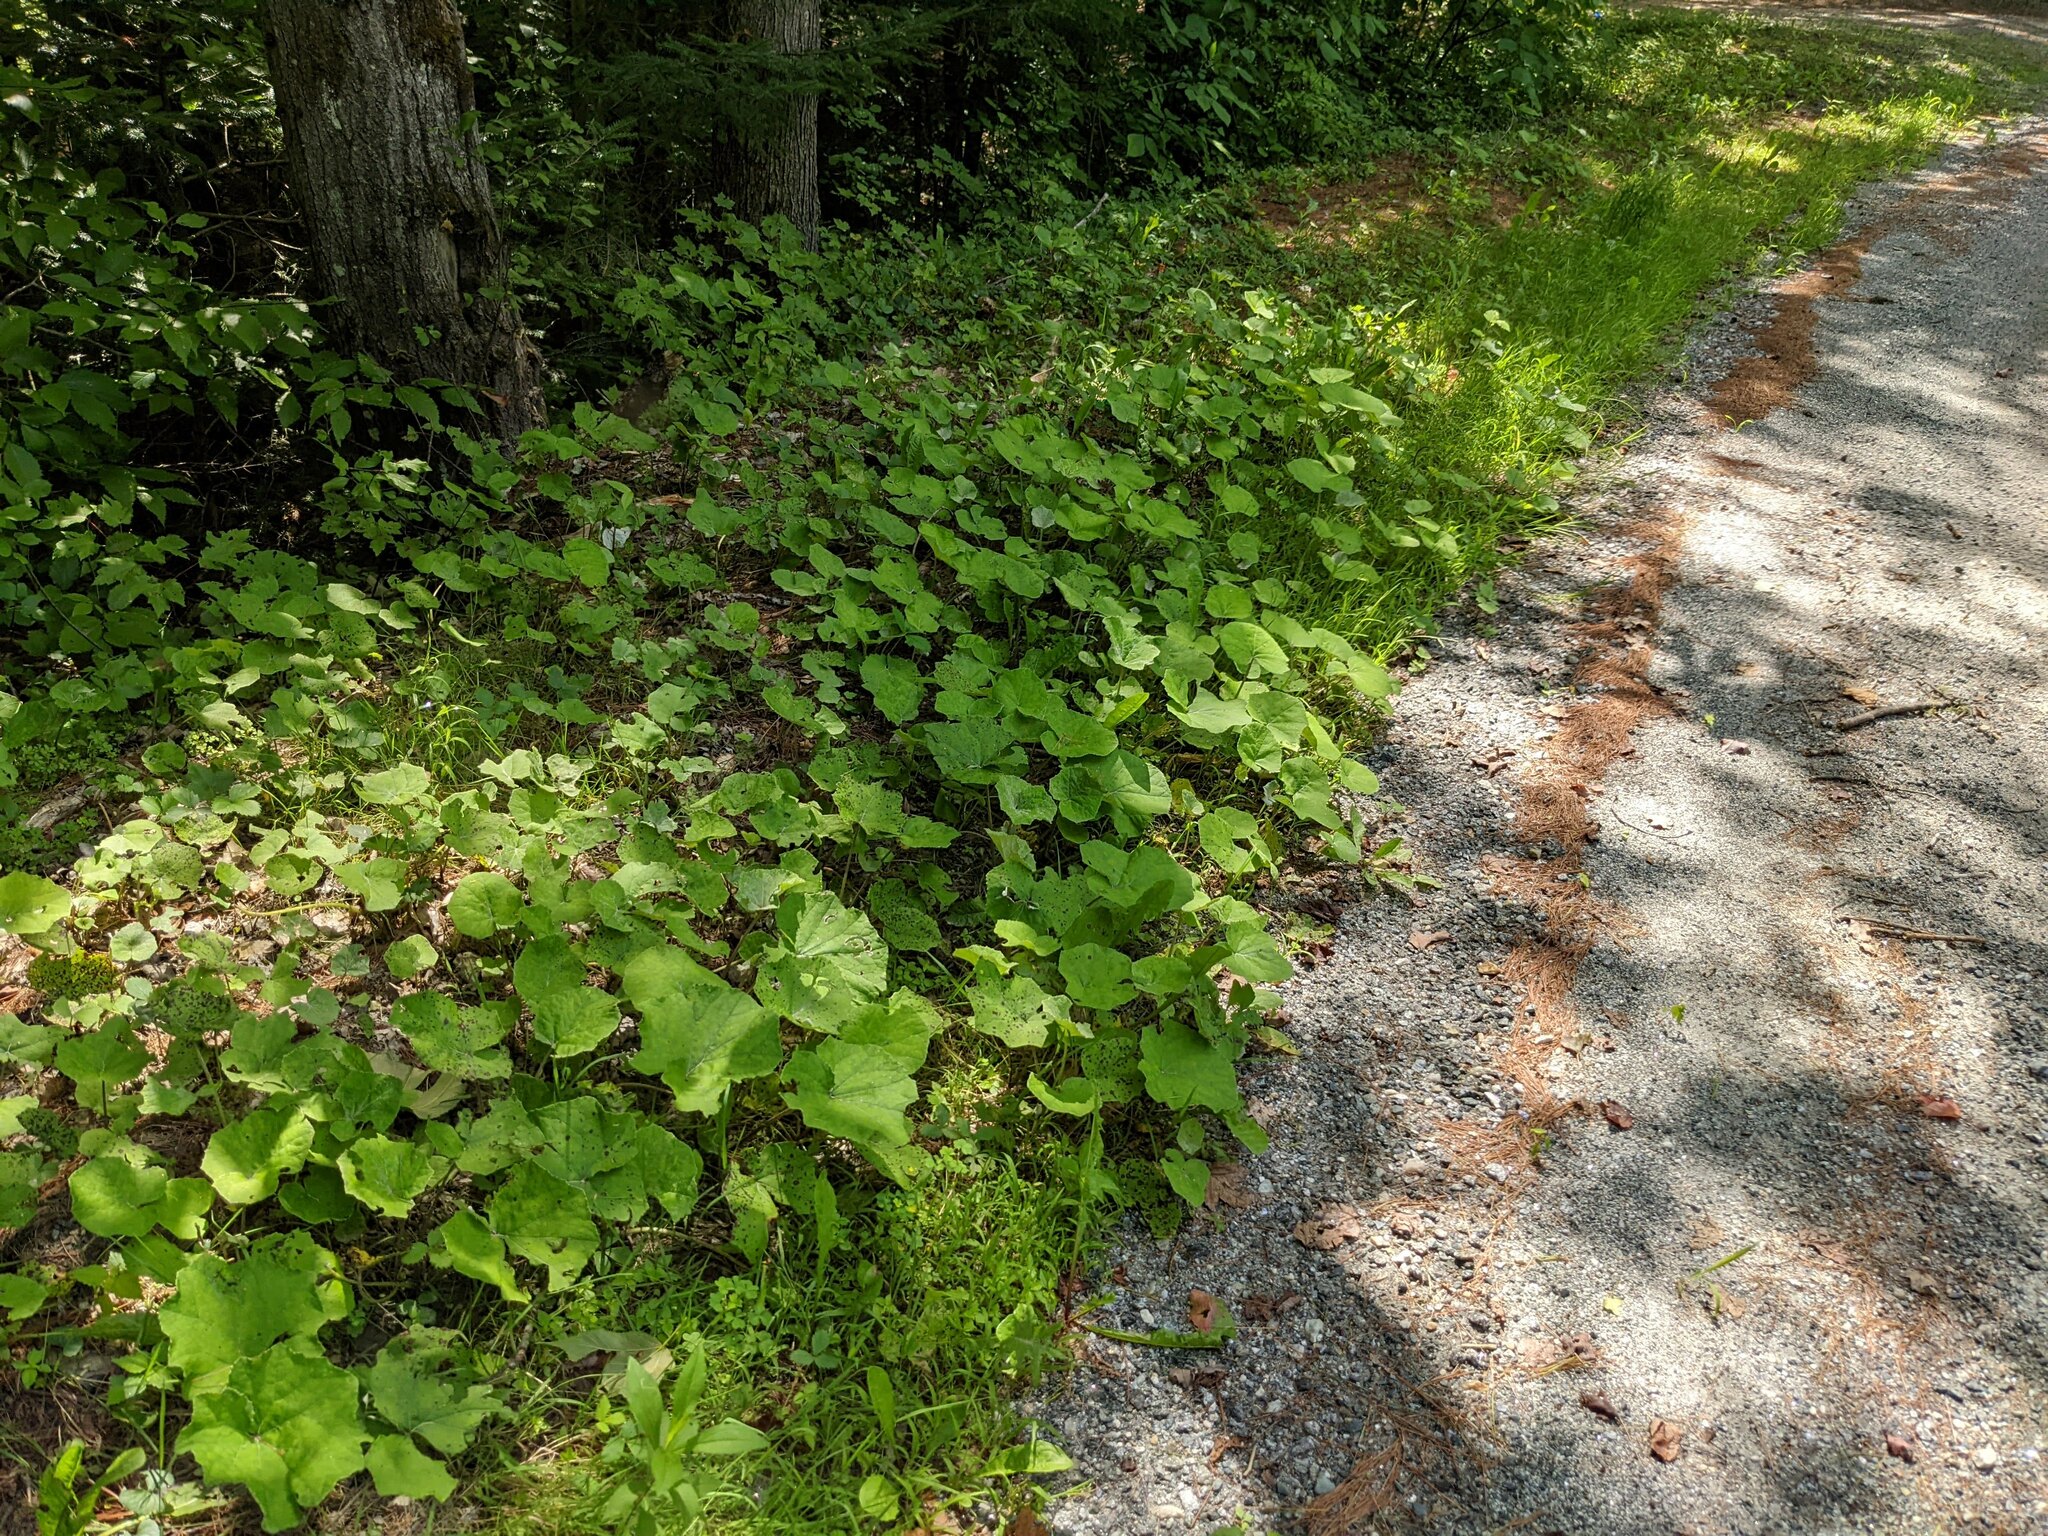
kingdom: Plantae
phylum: Tracheophyta
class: Magnoliopsida
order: Asterales
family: Asteraceae
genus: Tussilago
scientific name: Tussilago farfara
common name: Coltsfoot
